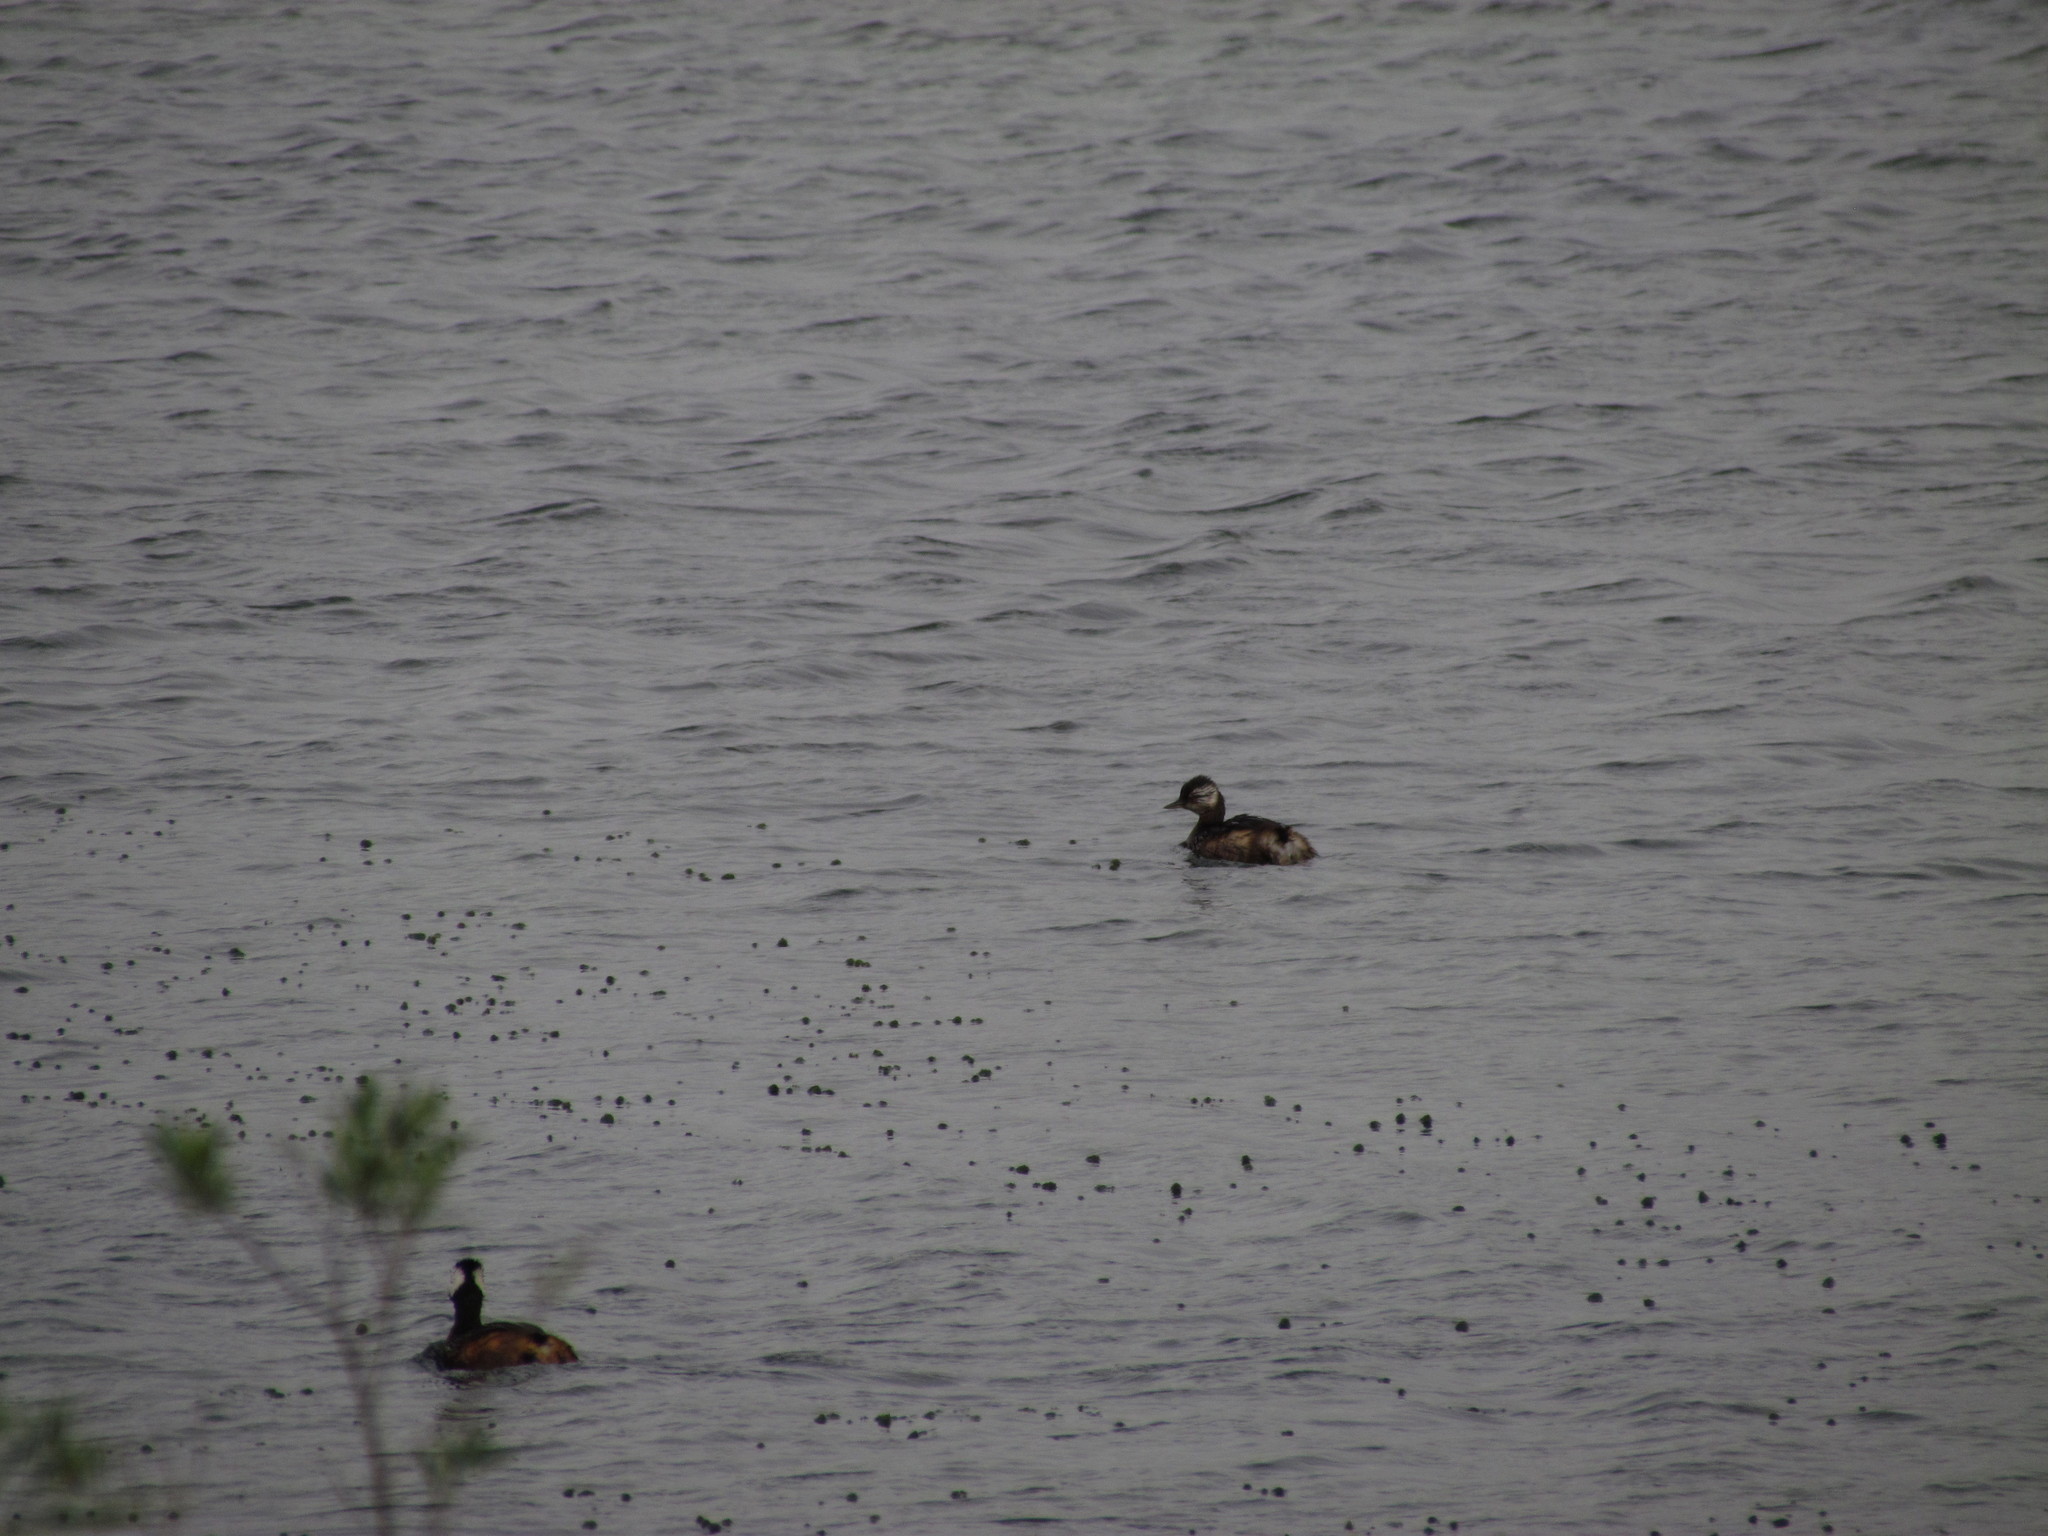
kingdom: Animalia
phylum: Chordata
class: Aves
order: Podicipediformes
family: Podicipedidae
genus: Rollandia
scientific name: Rollandia rolland
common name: White-tufted grebe
